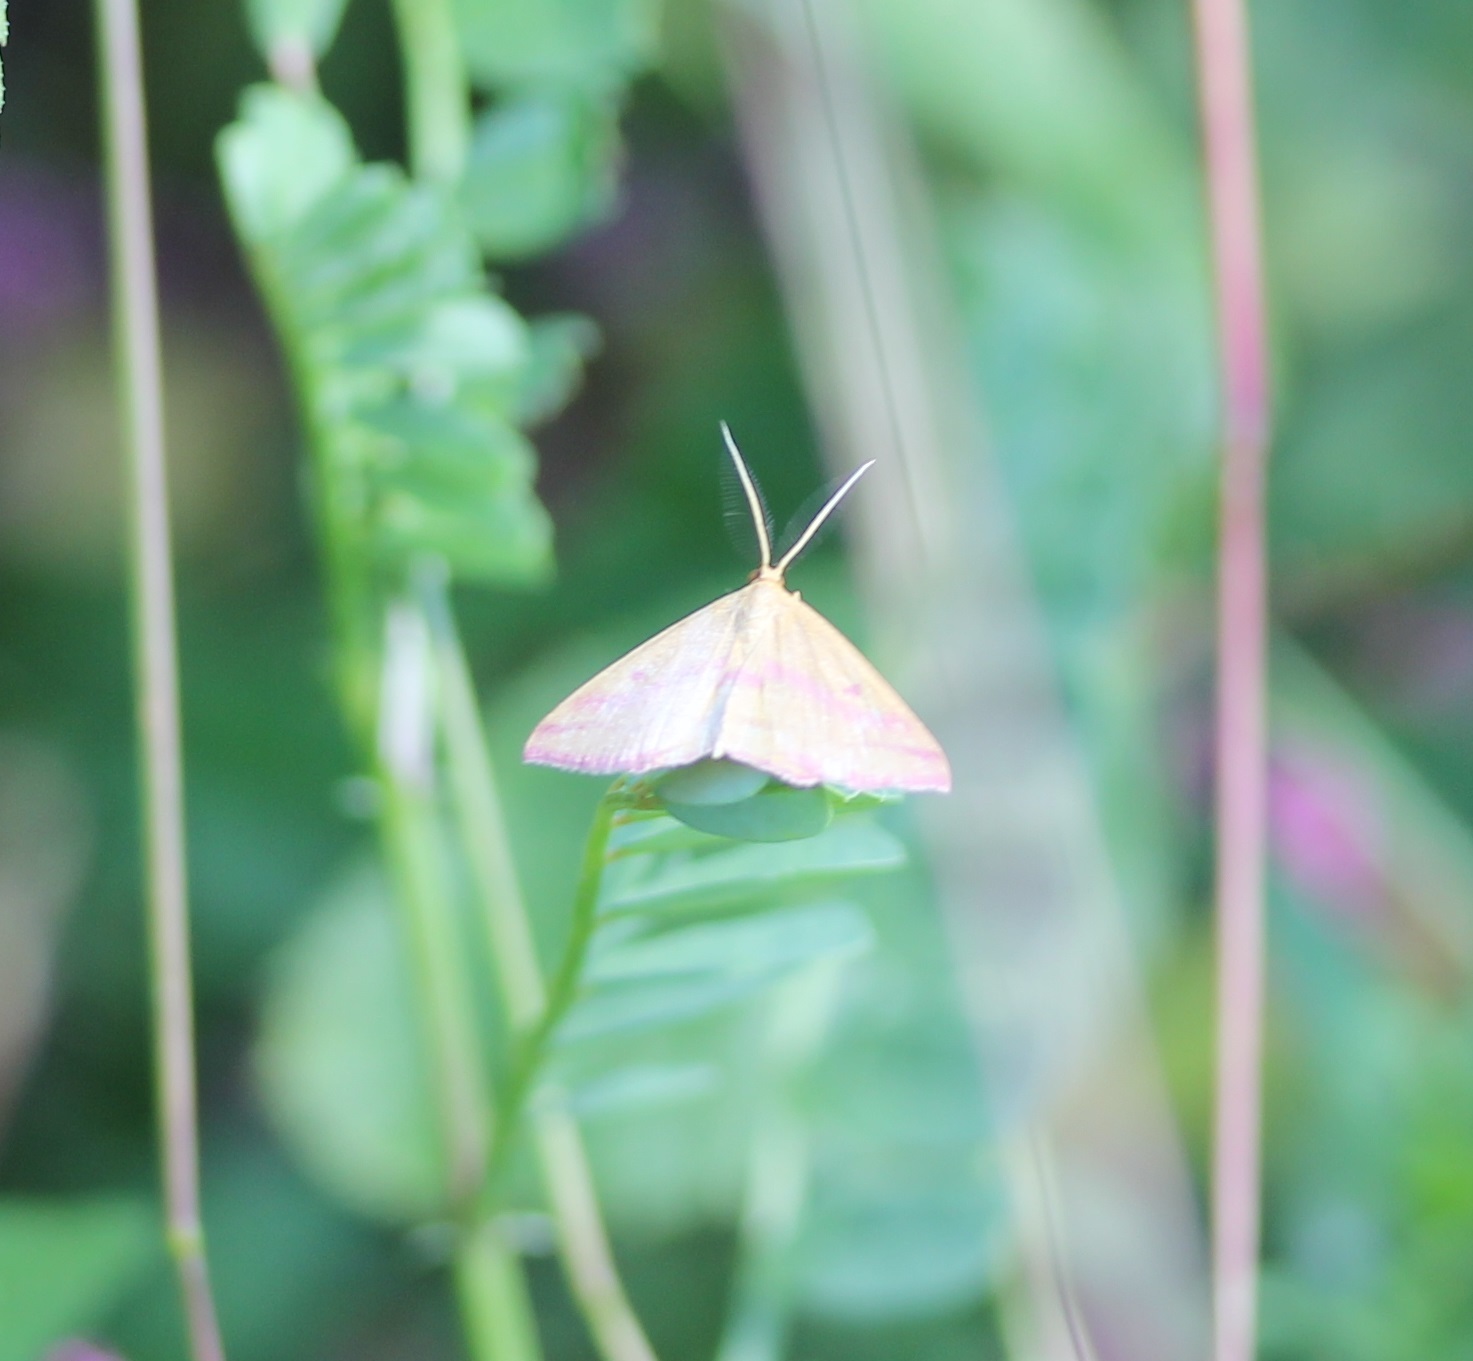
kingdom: Animalia
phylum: Arthropoda
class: Insecta
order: Lepidoptera
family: Geometridae
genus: Haematopis
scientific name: Haematopis grataria
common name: Chickweed geometer
